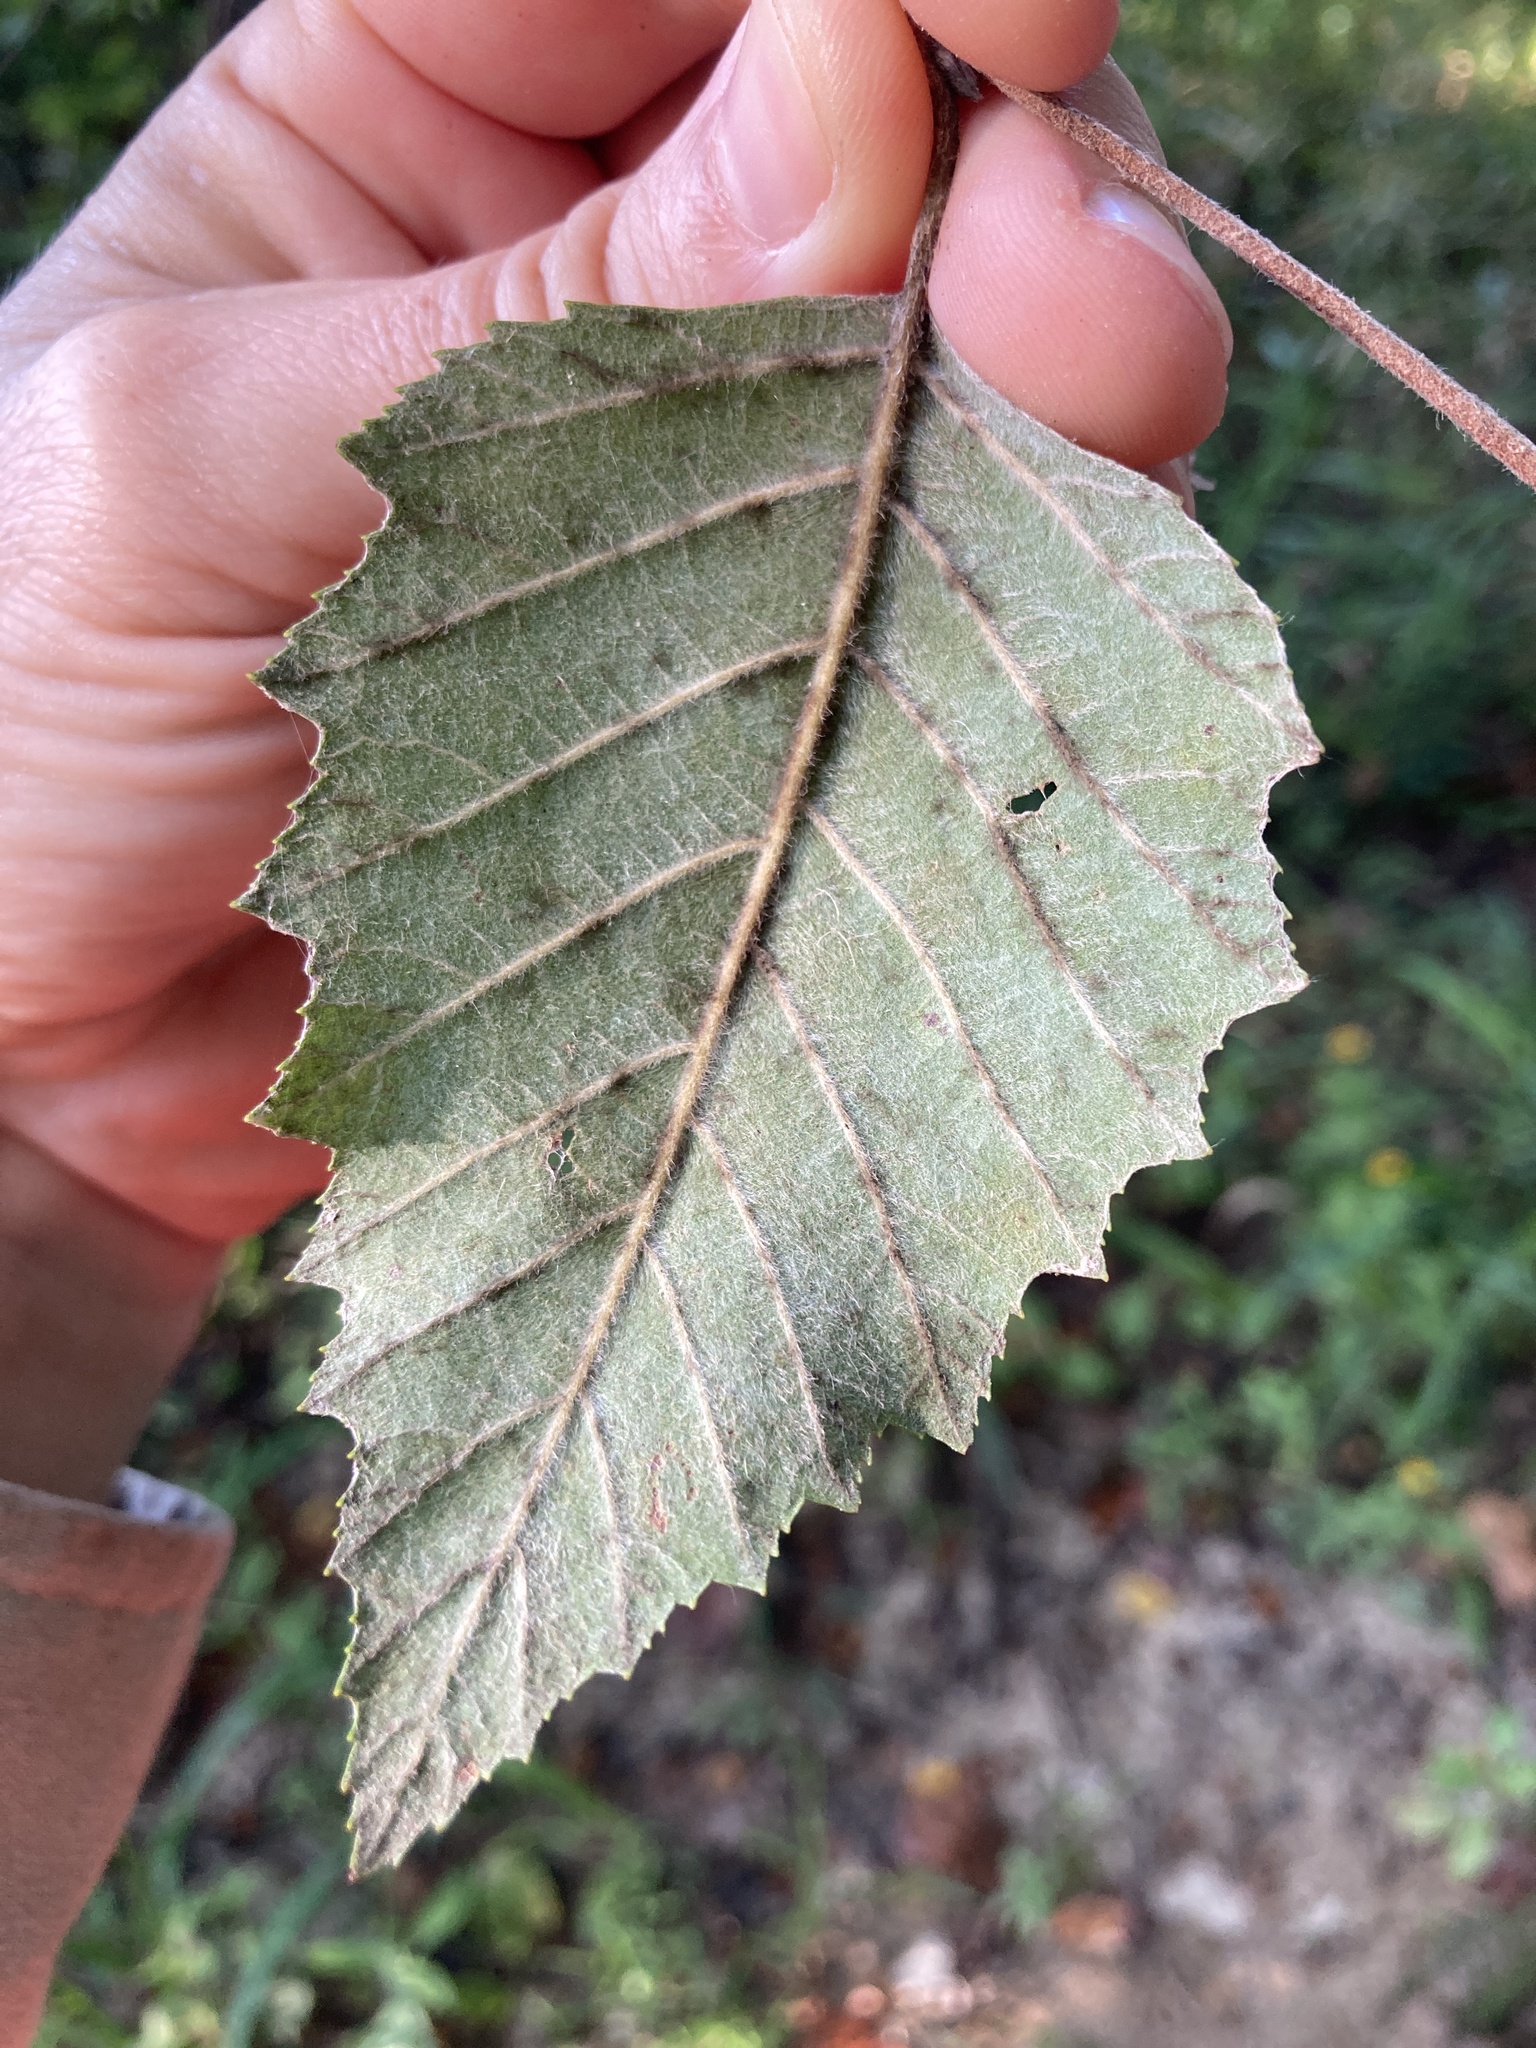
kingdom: Plantae
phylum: Tracheophyta
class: Magnoliopsida
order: Fagales
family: Betulaceae
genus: Betula
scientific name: Betula nigra
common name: Black birch
